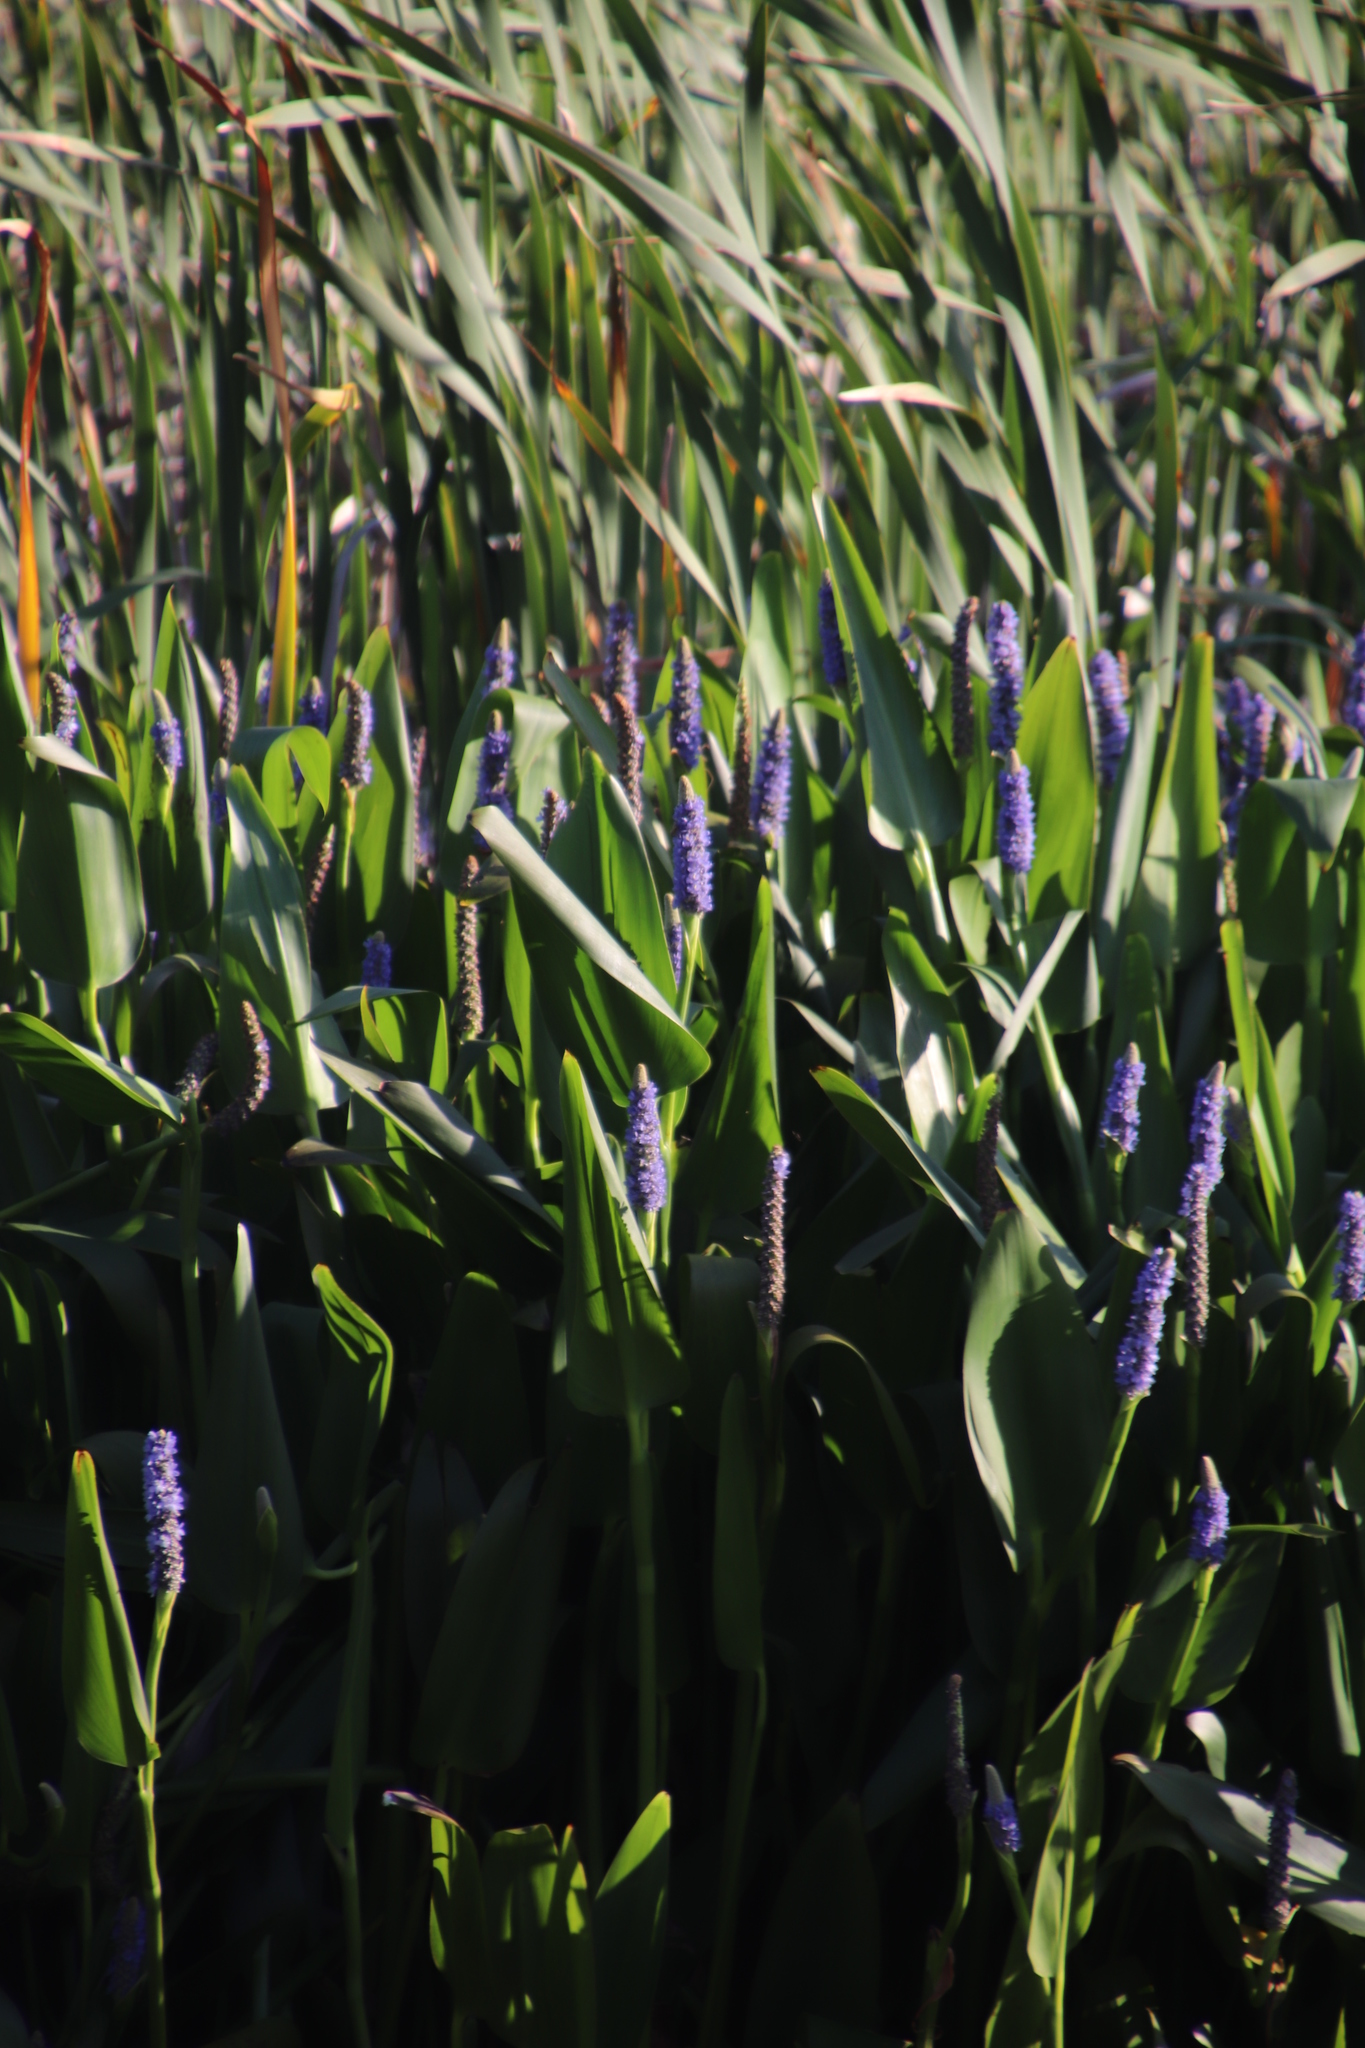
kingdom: Plantae
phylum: Tracheophyta
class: Liliopsida
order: Commelinales
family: Pontederiaceae
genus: Pontederia
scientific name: Pontederia cordata
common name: Pickerelweed
